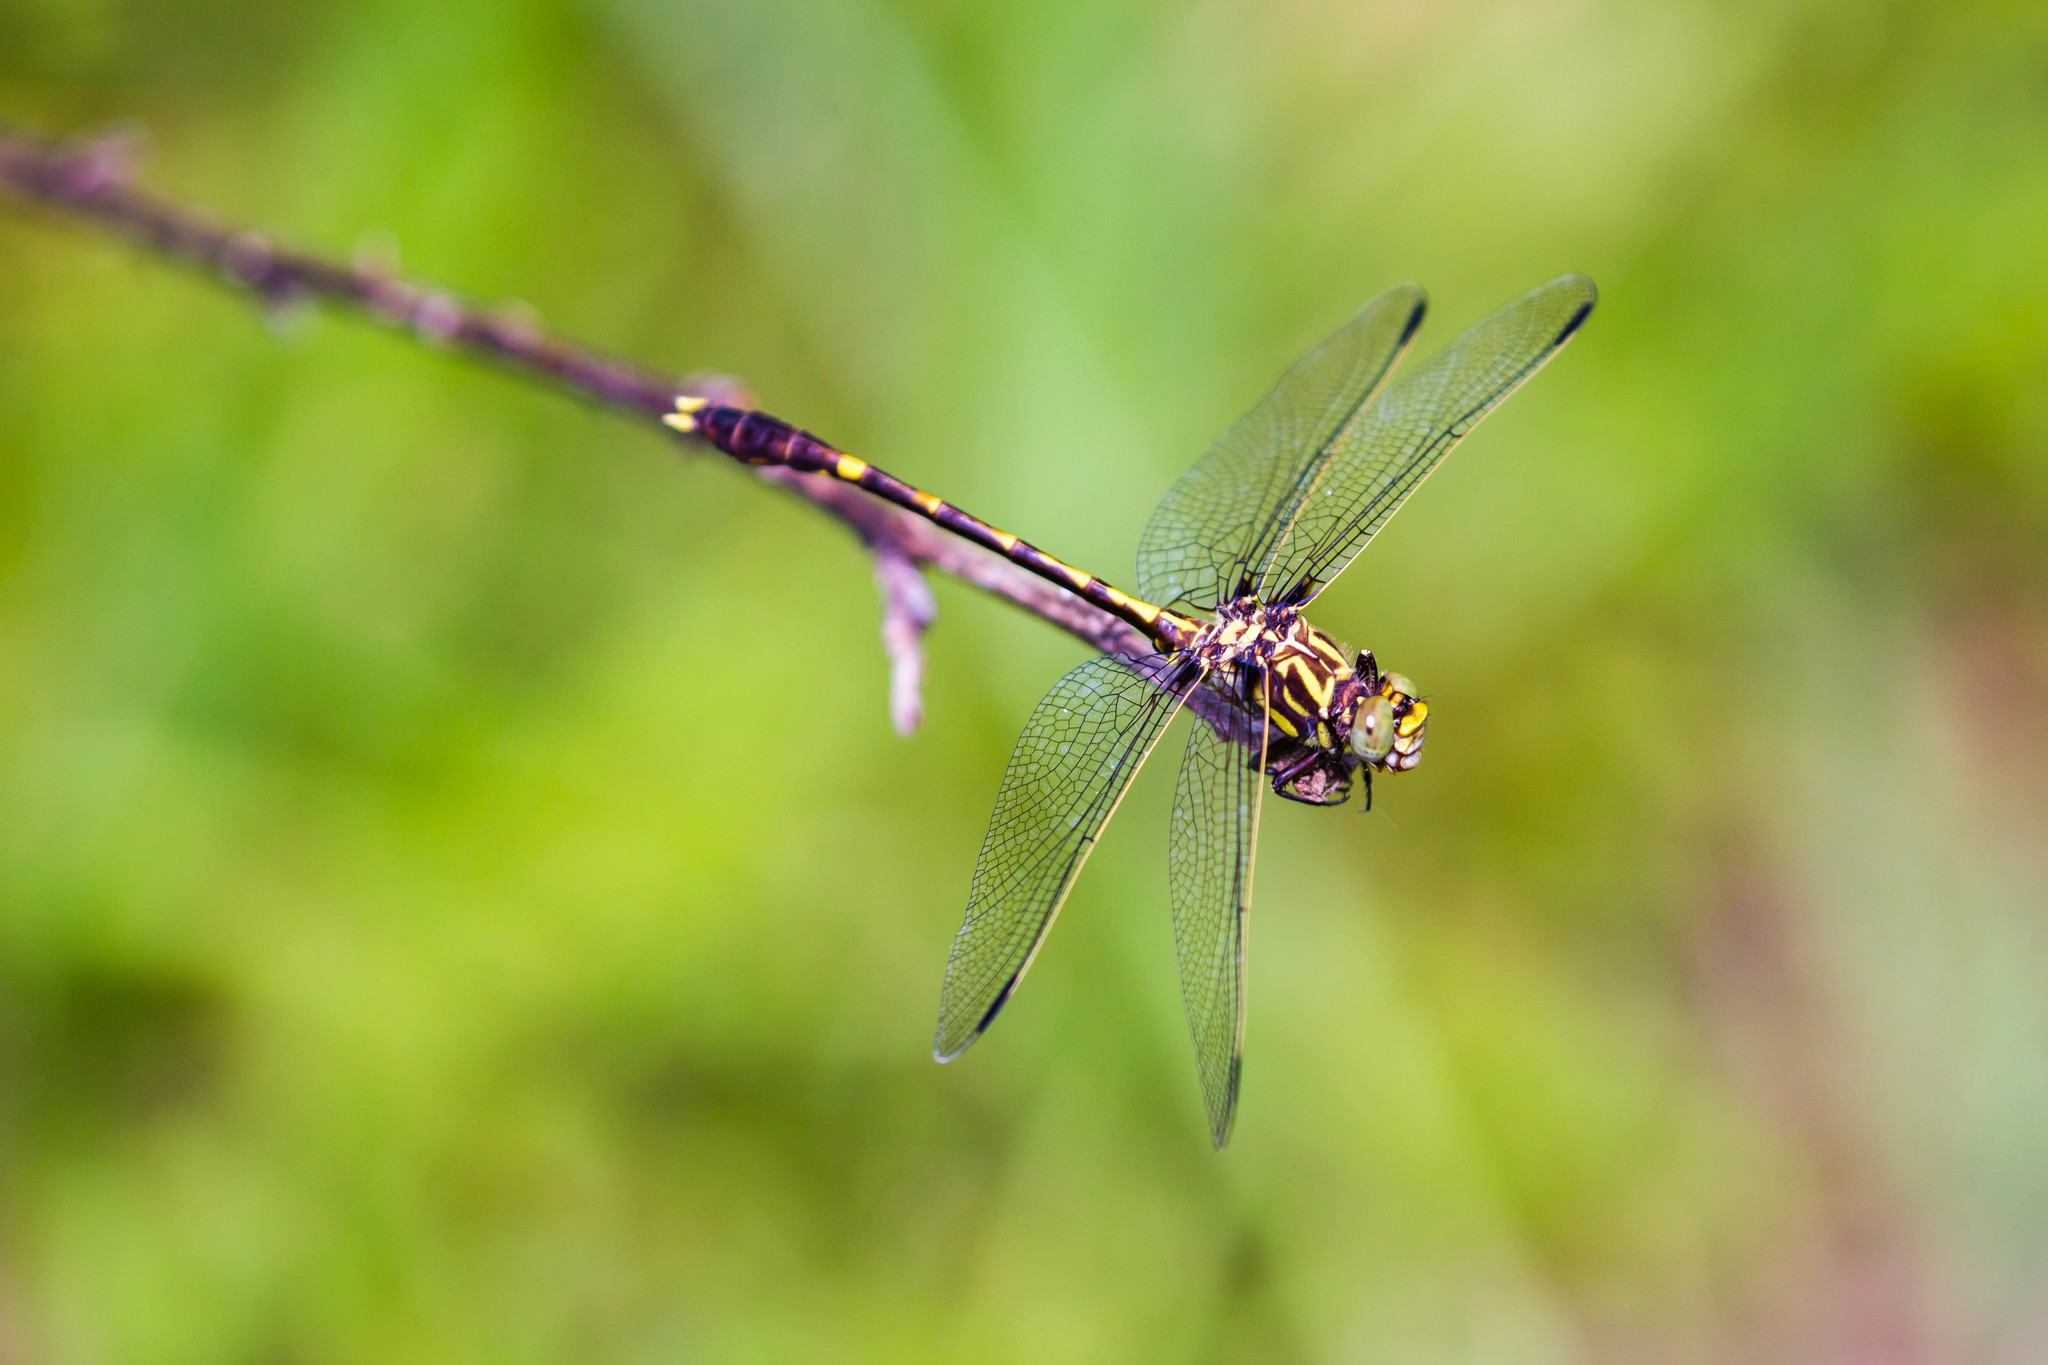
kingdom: Animalia
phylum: Arthropoda
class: Insecta
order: Odonata
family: Gomphidae
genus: Progomphus
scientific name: Progomphus obscurus
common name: Common sanddragon
